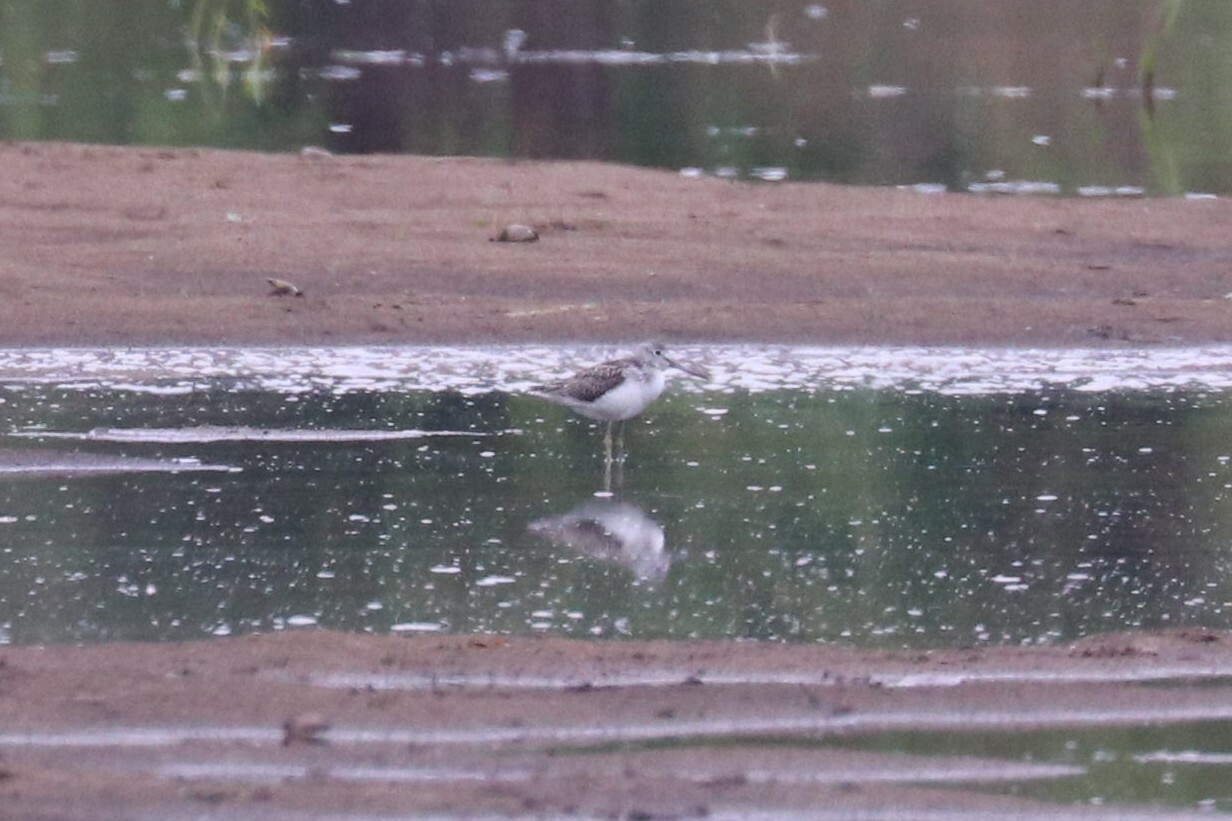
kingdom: Animalia
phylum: Chordata
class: Aves
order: Charadriiformes
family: Scolopacidae
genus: Tringa
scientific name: Tringa nebularia
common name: Common greenshank
